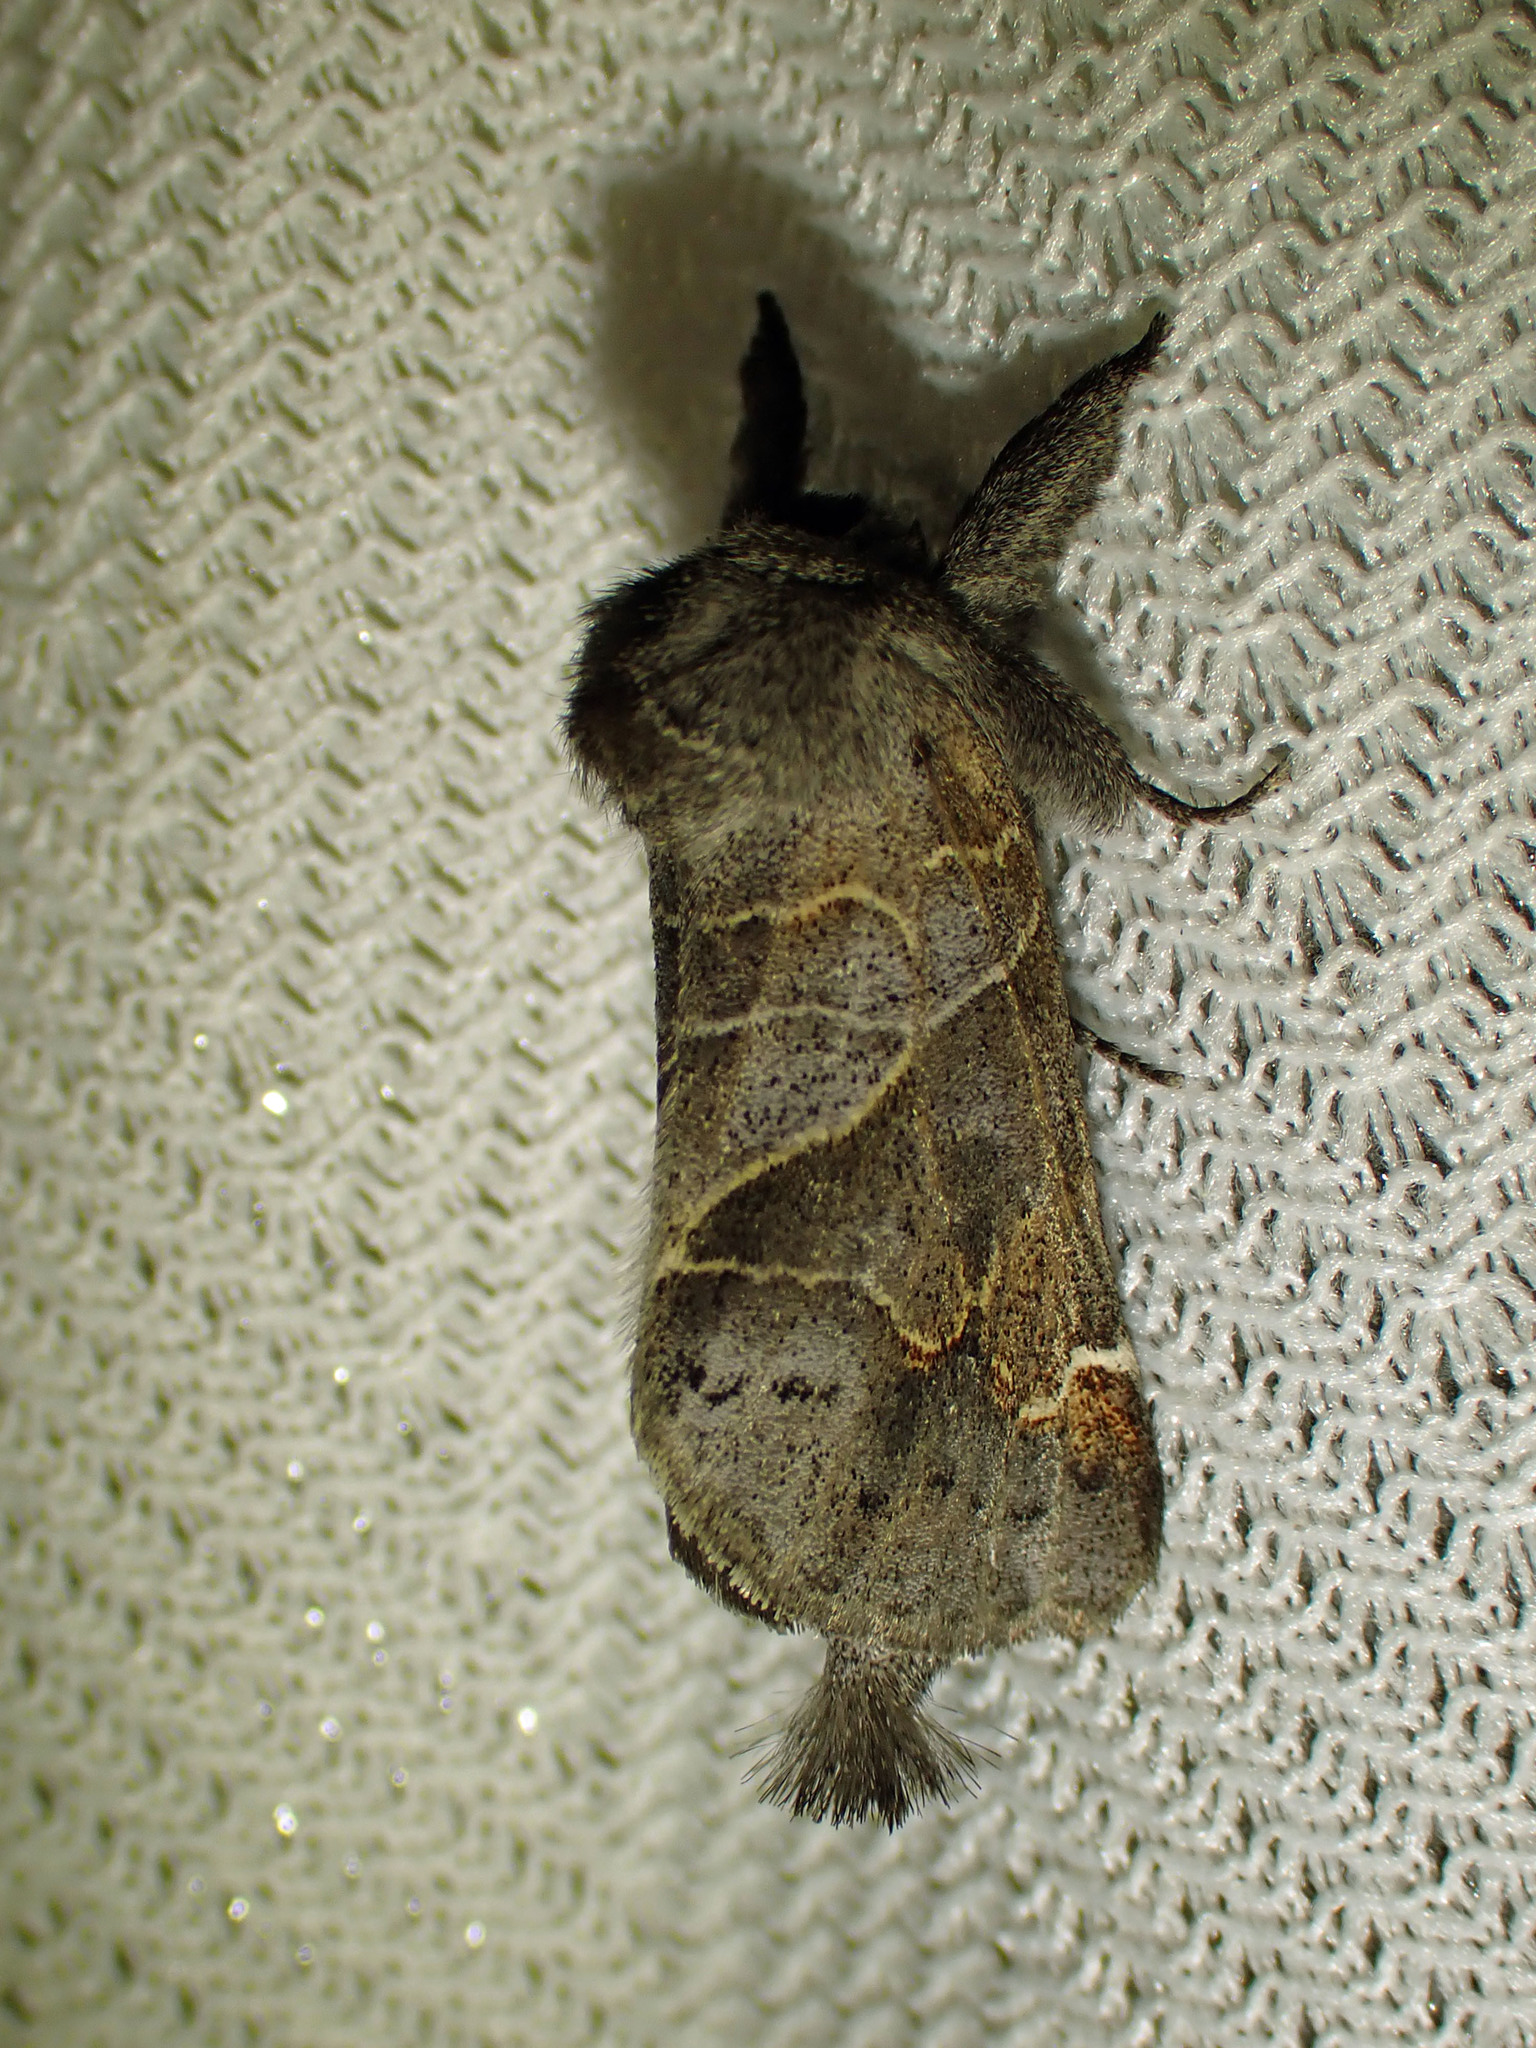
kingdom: Animalia
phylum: Arthropoda
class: Insecta
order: Lepidoptera
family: Notodontidae
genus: Clostera
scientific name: Clostera apicalis
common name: Apical prominent
